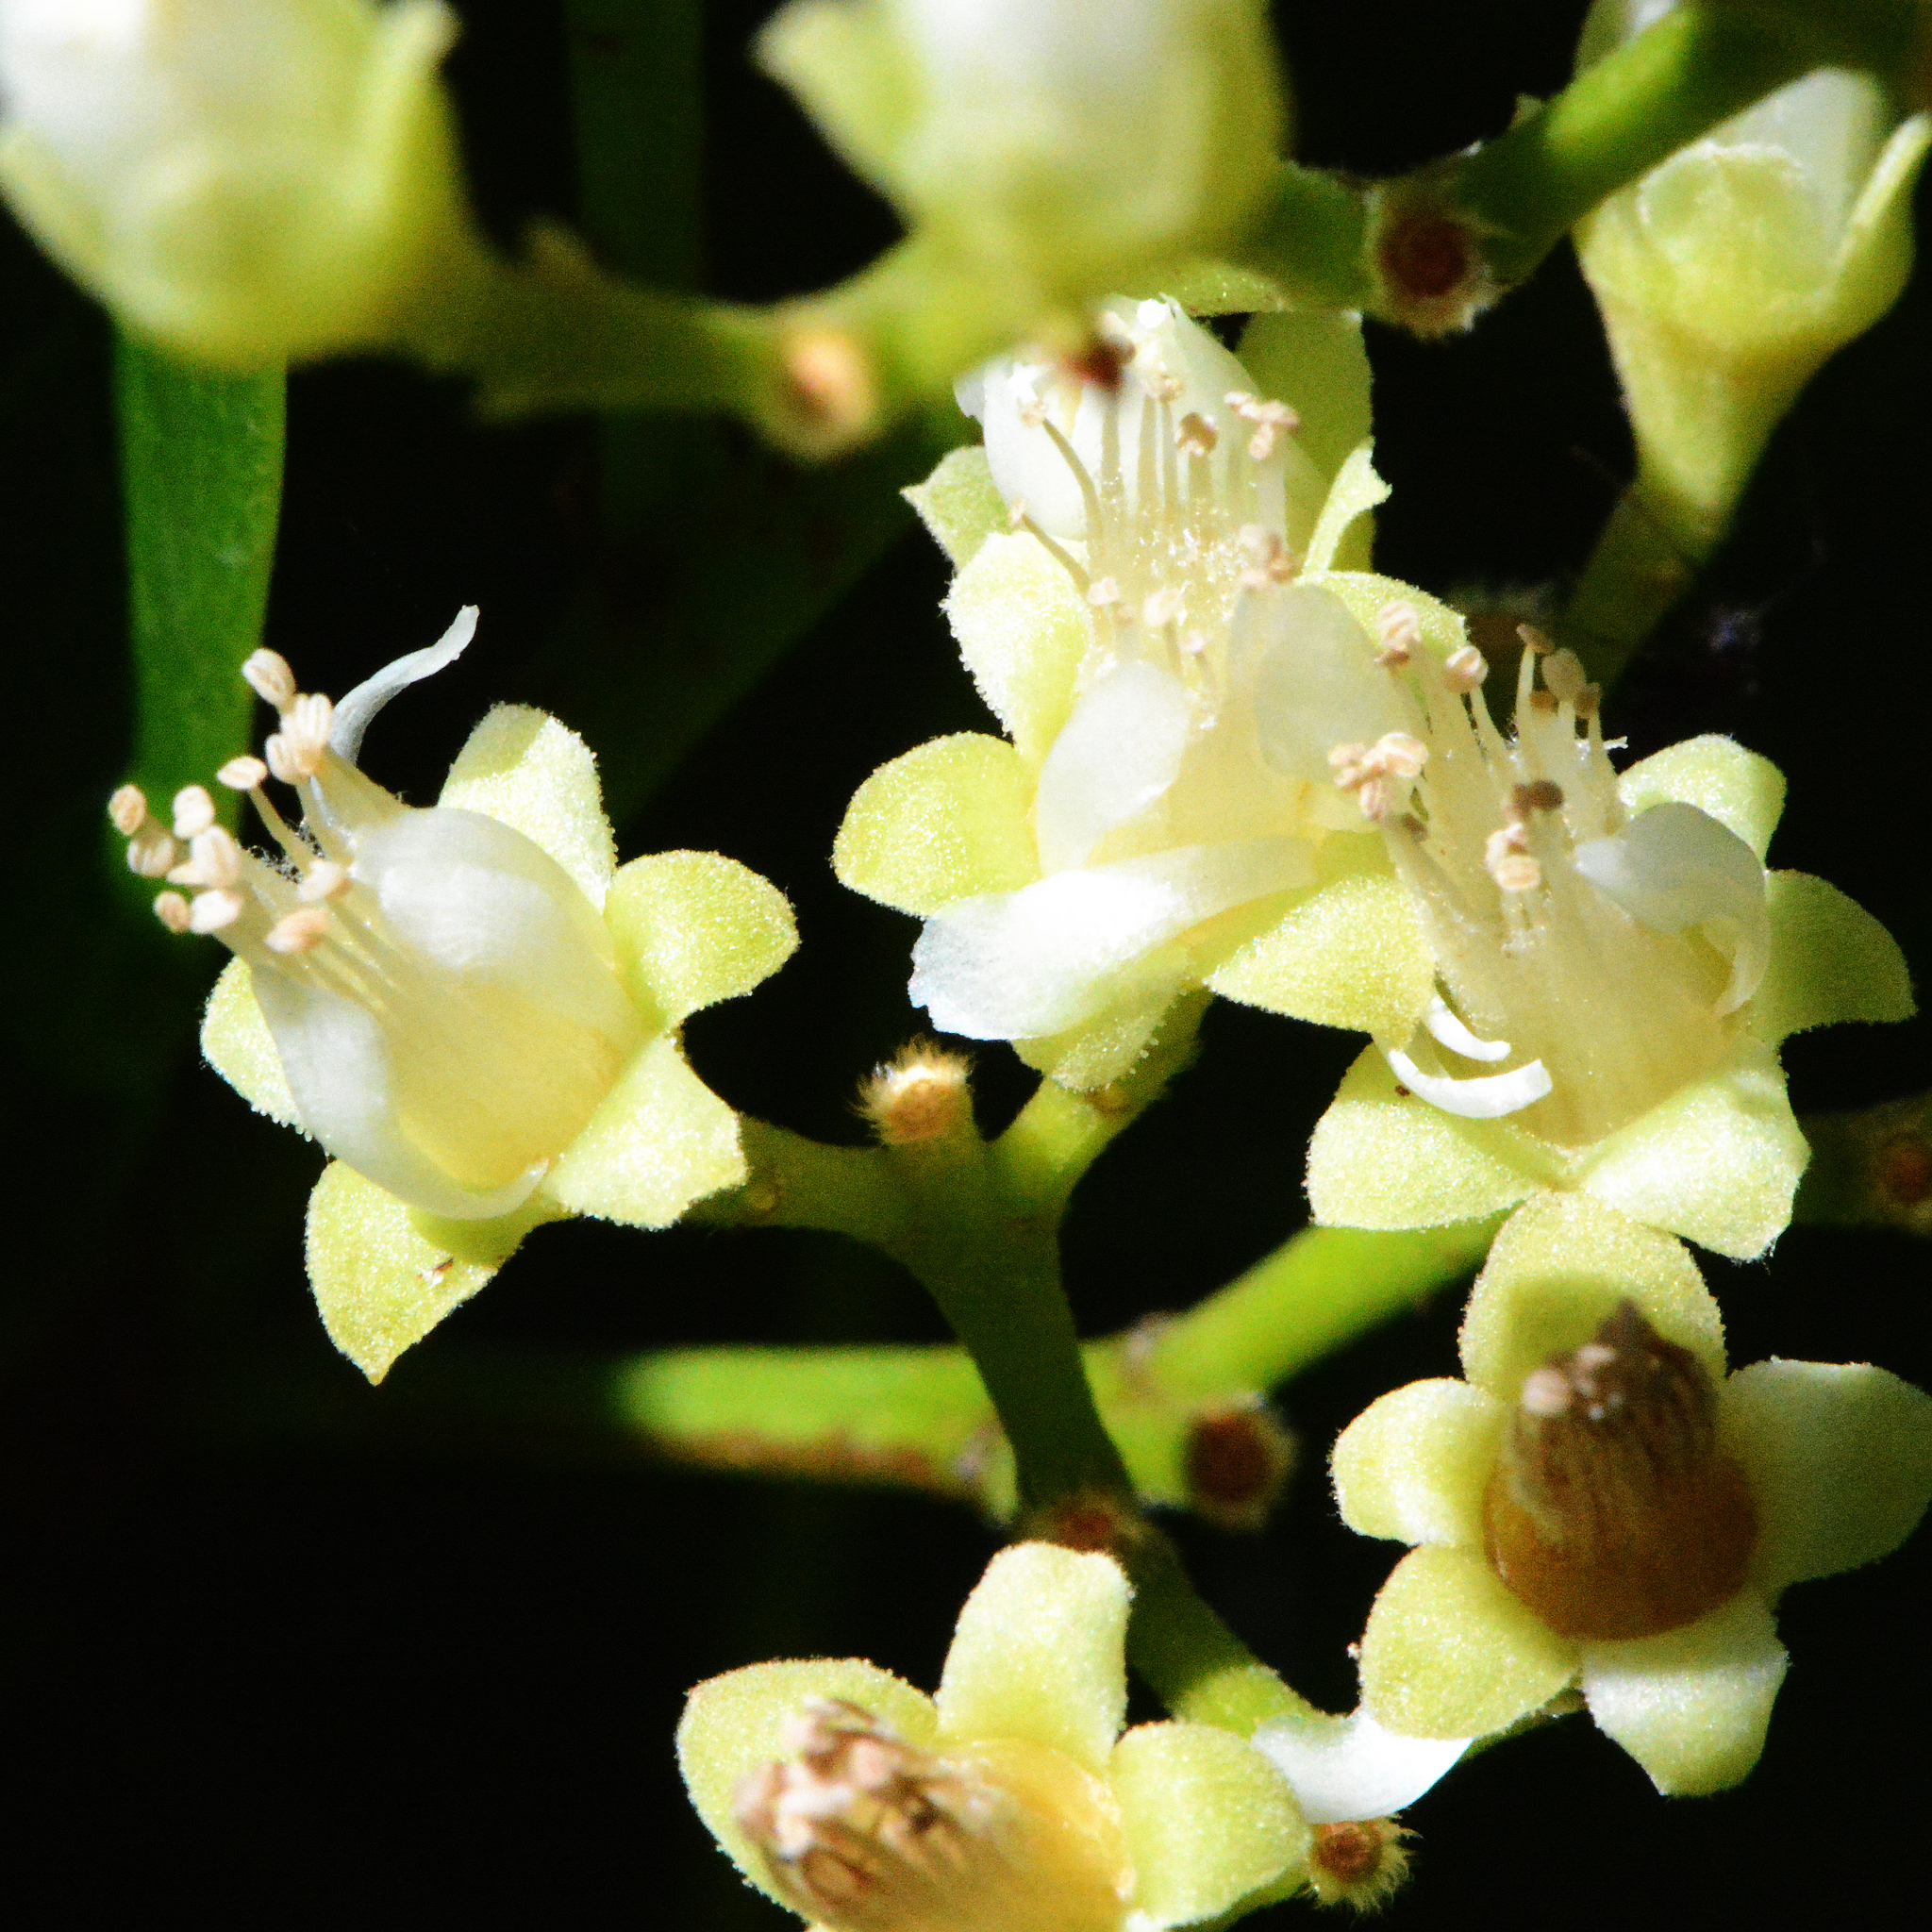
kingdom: Plantae
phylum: Tracheophyta
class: Magnoliopsida
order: Malpighiales
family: Chrysobalanaceae
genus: Chrysobalanus
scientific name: Chrysobalanus icaco
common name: Coco plum
